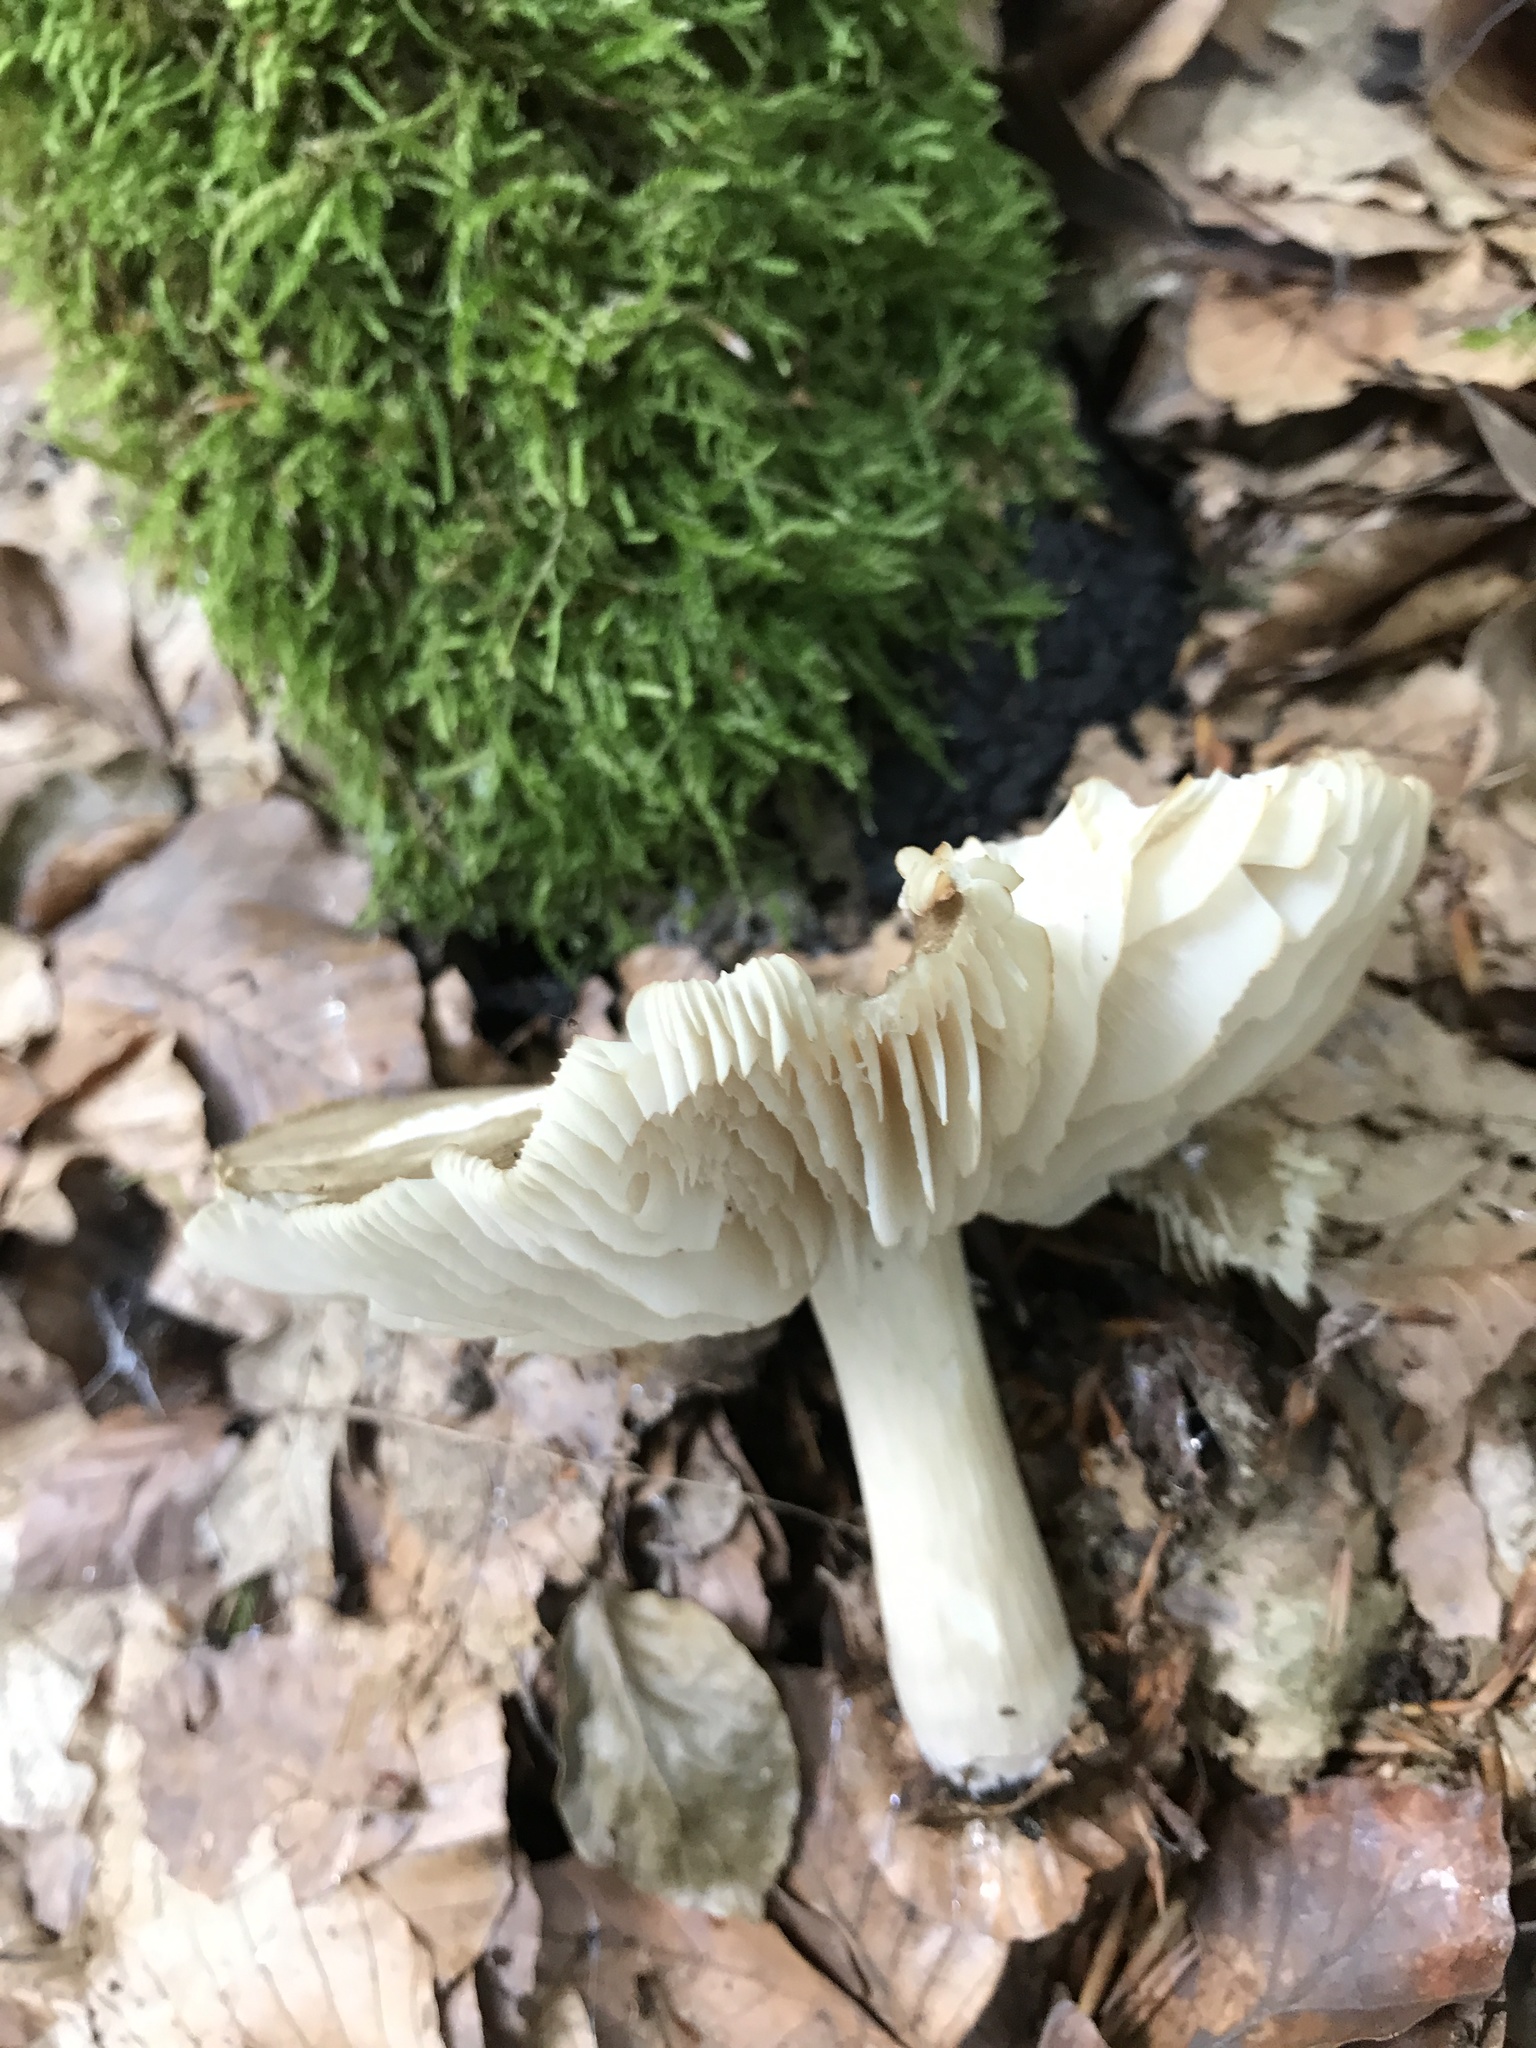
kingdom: Fungi
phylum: Basidiomycota
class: Agaricomycetes
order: Agaricales
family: Tricholomataceae
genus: Megacollybia
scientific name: Megacollybia platyphylla
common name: Whitelaced shank
